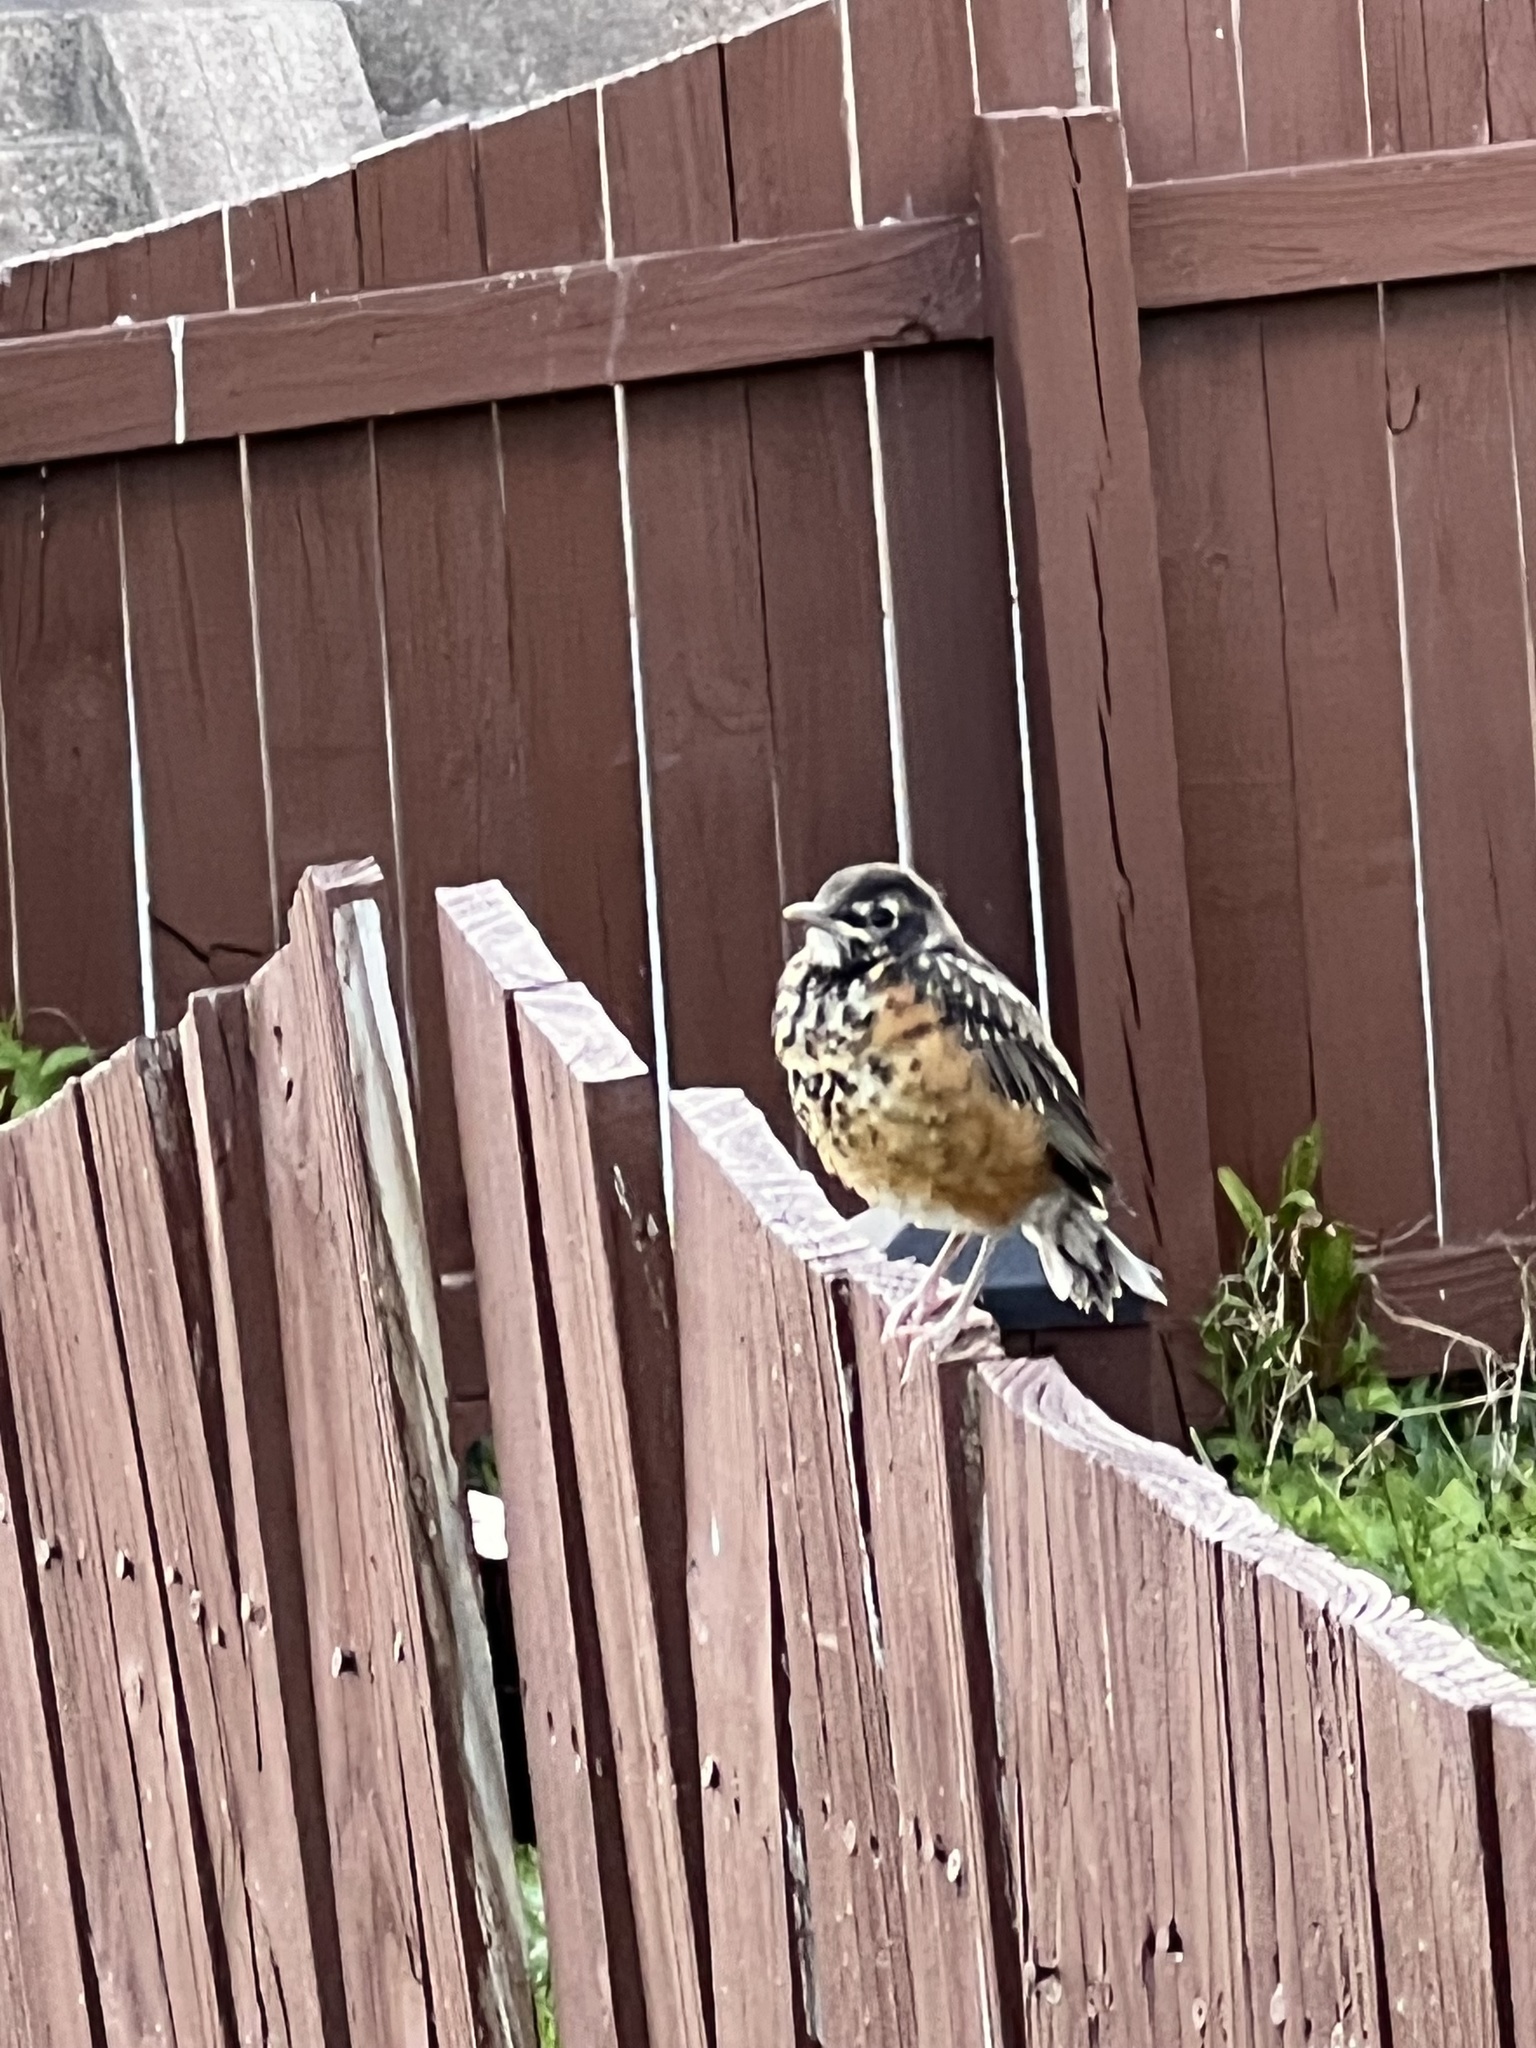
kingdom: Animalia
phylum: Chordata
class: Aves
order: Passeriformes
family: Turdidae
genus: Turdus
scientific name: Turdus migratorius
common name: American robin
